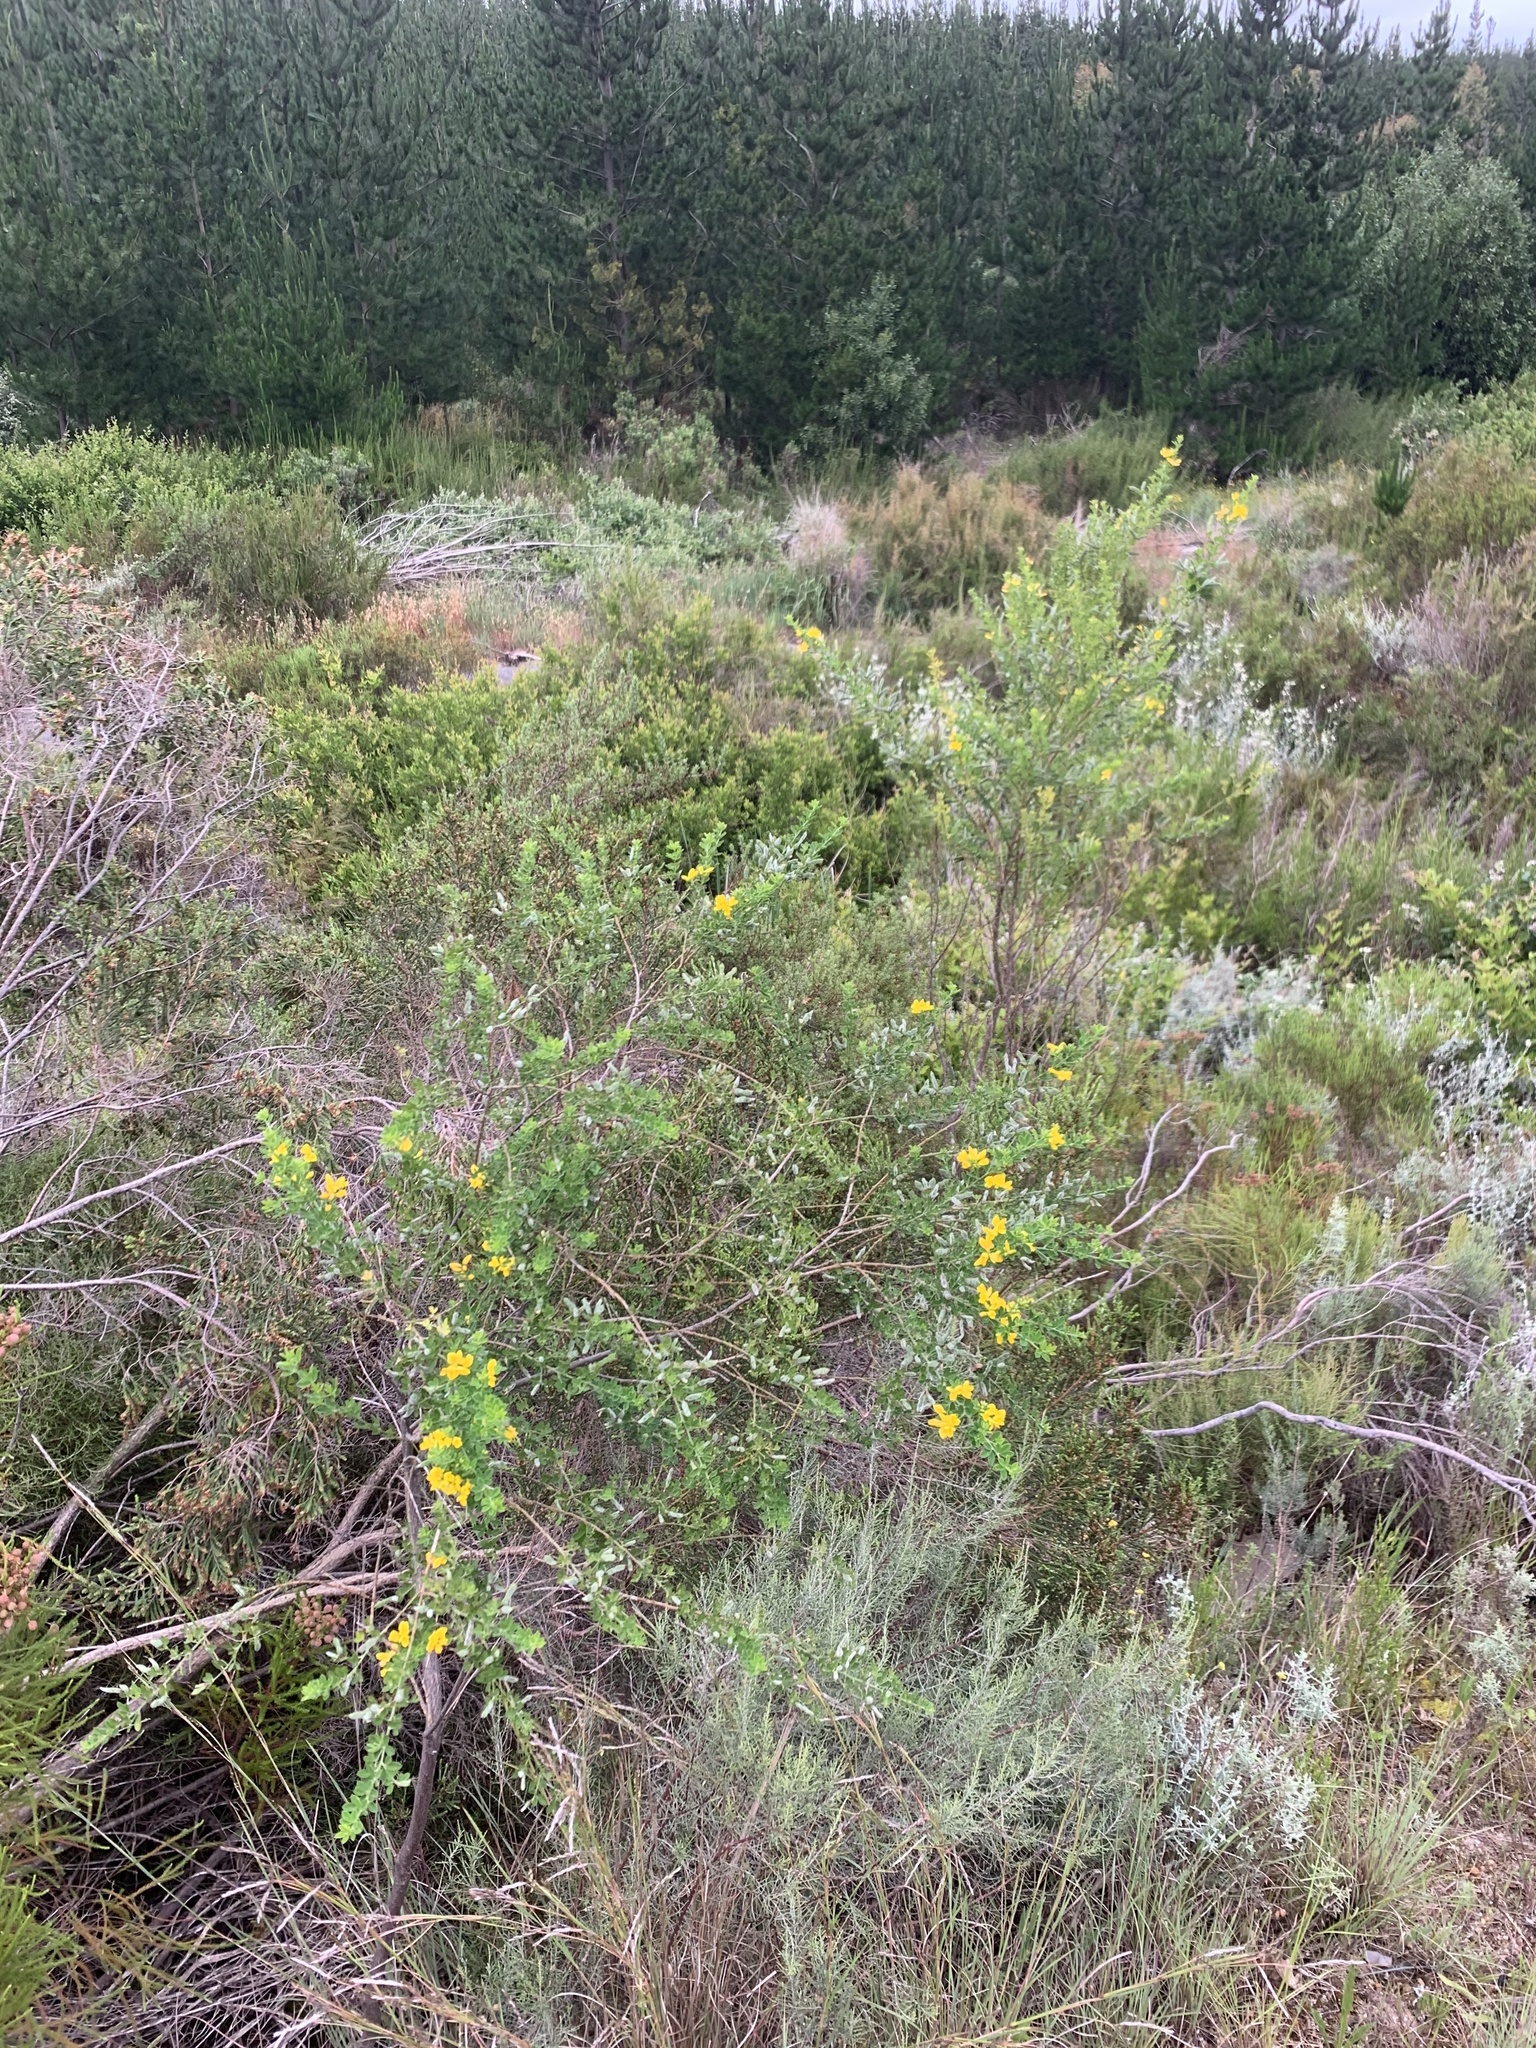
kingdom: Plantae
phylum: Tracheophyta
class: Magnoliopsida
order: Fabales
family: Fabaceae
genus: Genista
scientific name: Genista monspessulana
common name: Montpellier broom
